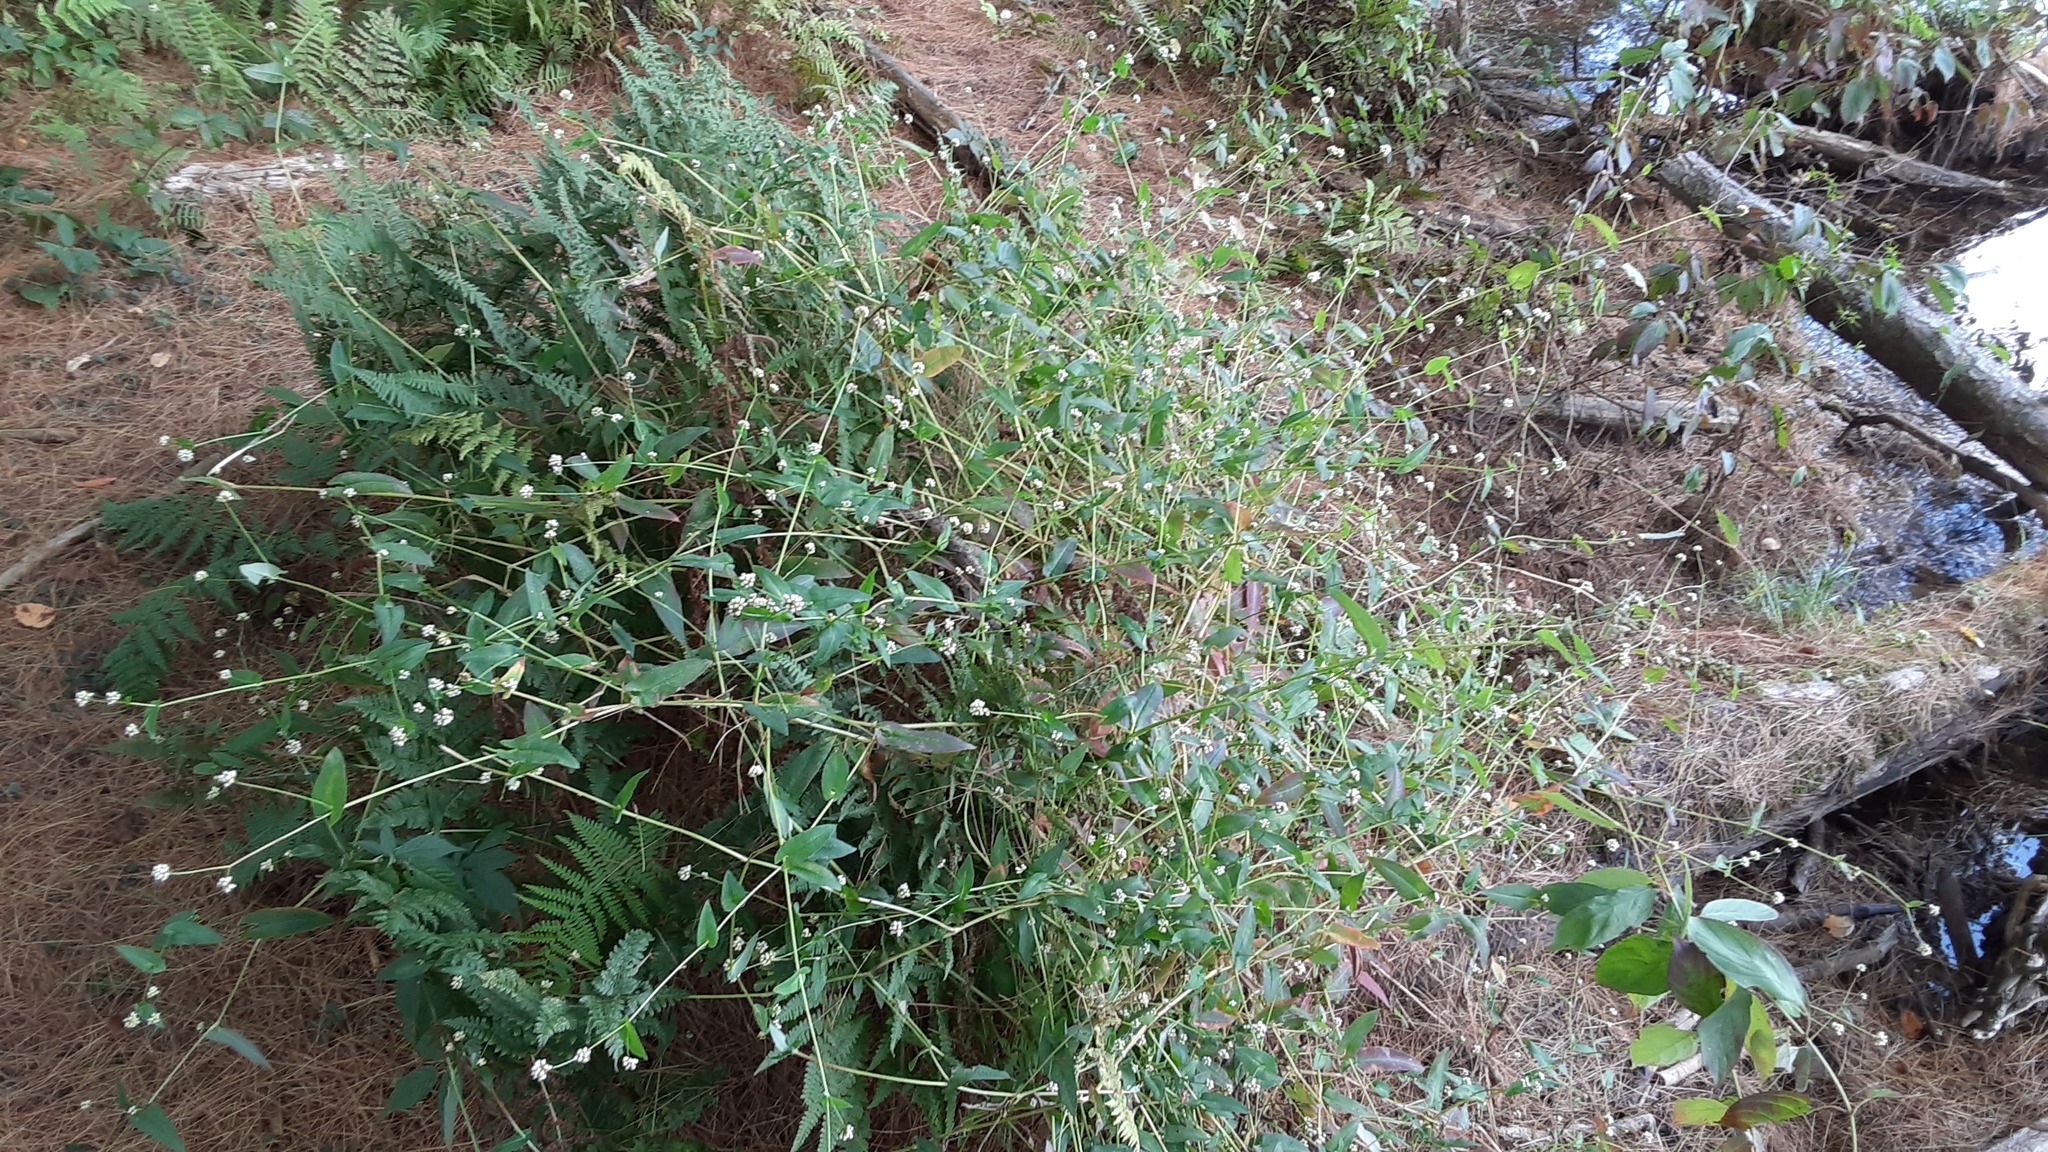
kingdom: Plantae
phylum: Tracheophyta
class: Magnoliopsida
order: Caryophyllales
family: Polygonaceae
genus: Persicaria
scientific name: Persicaria sagittata
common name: American tearthumb
